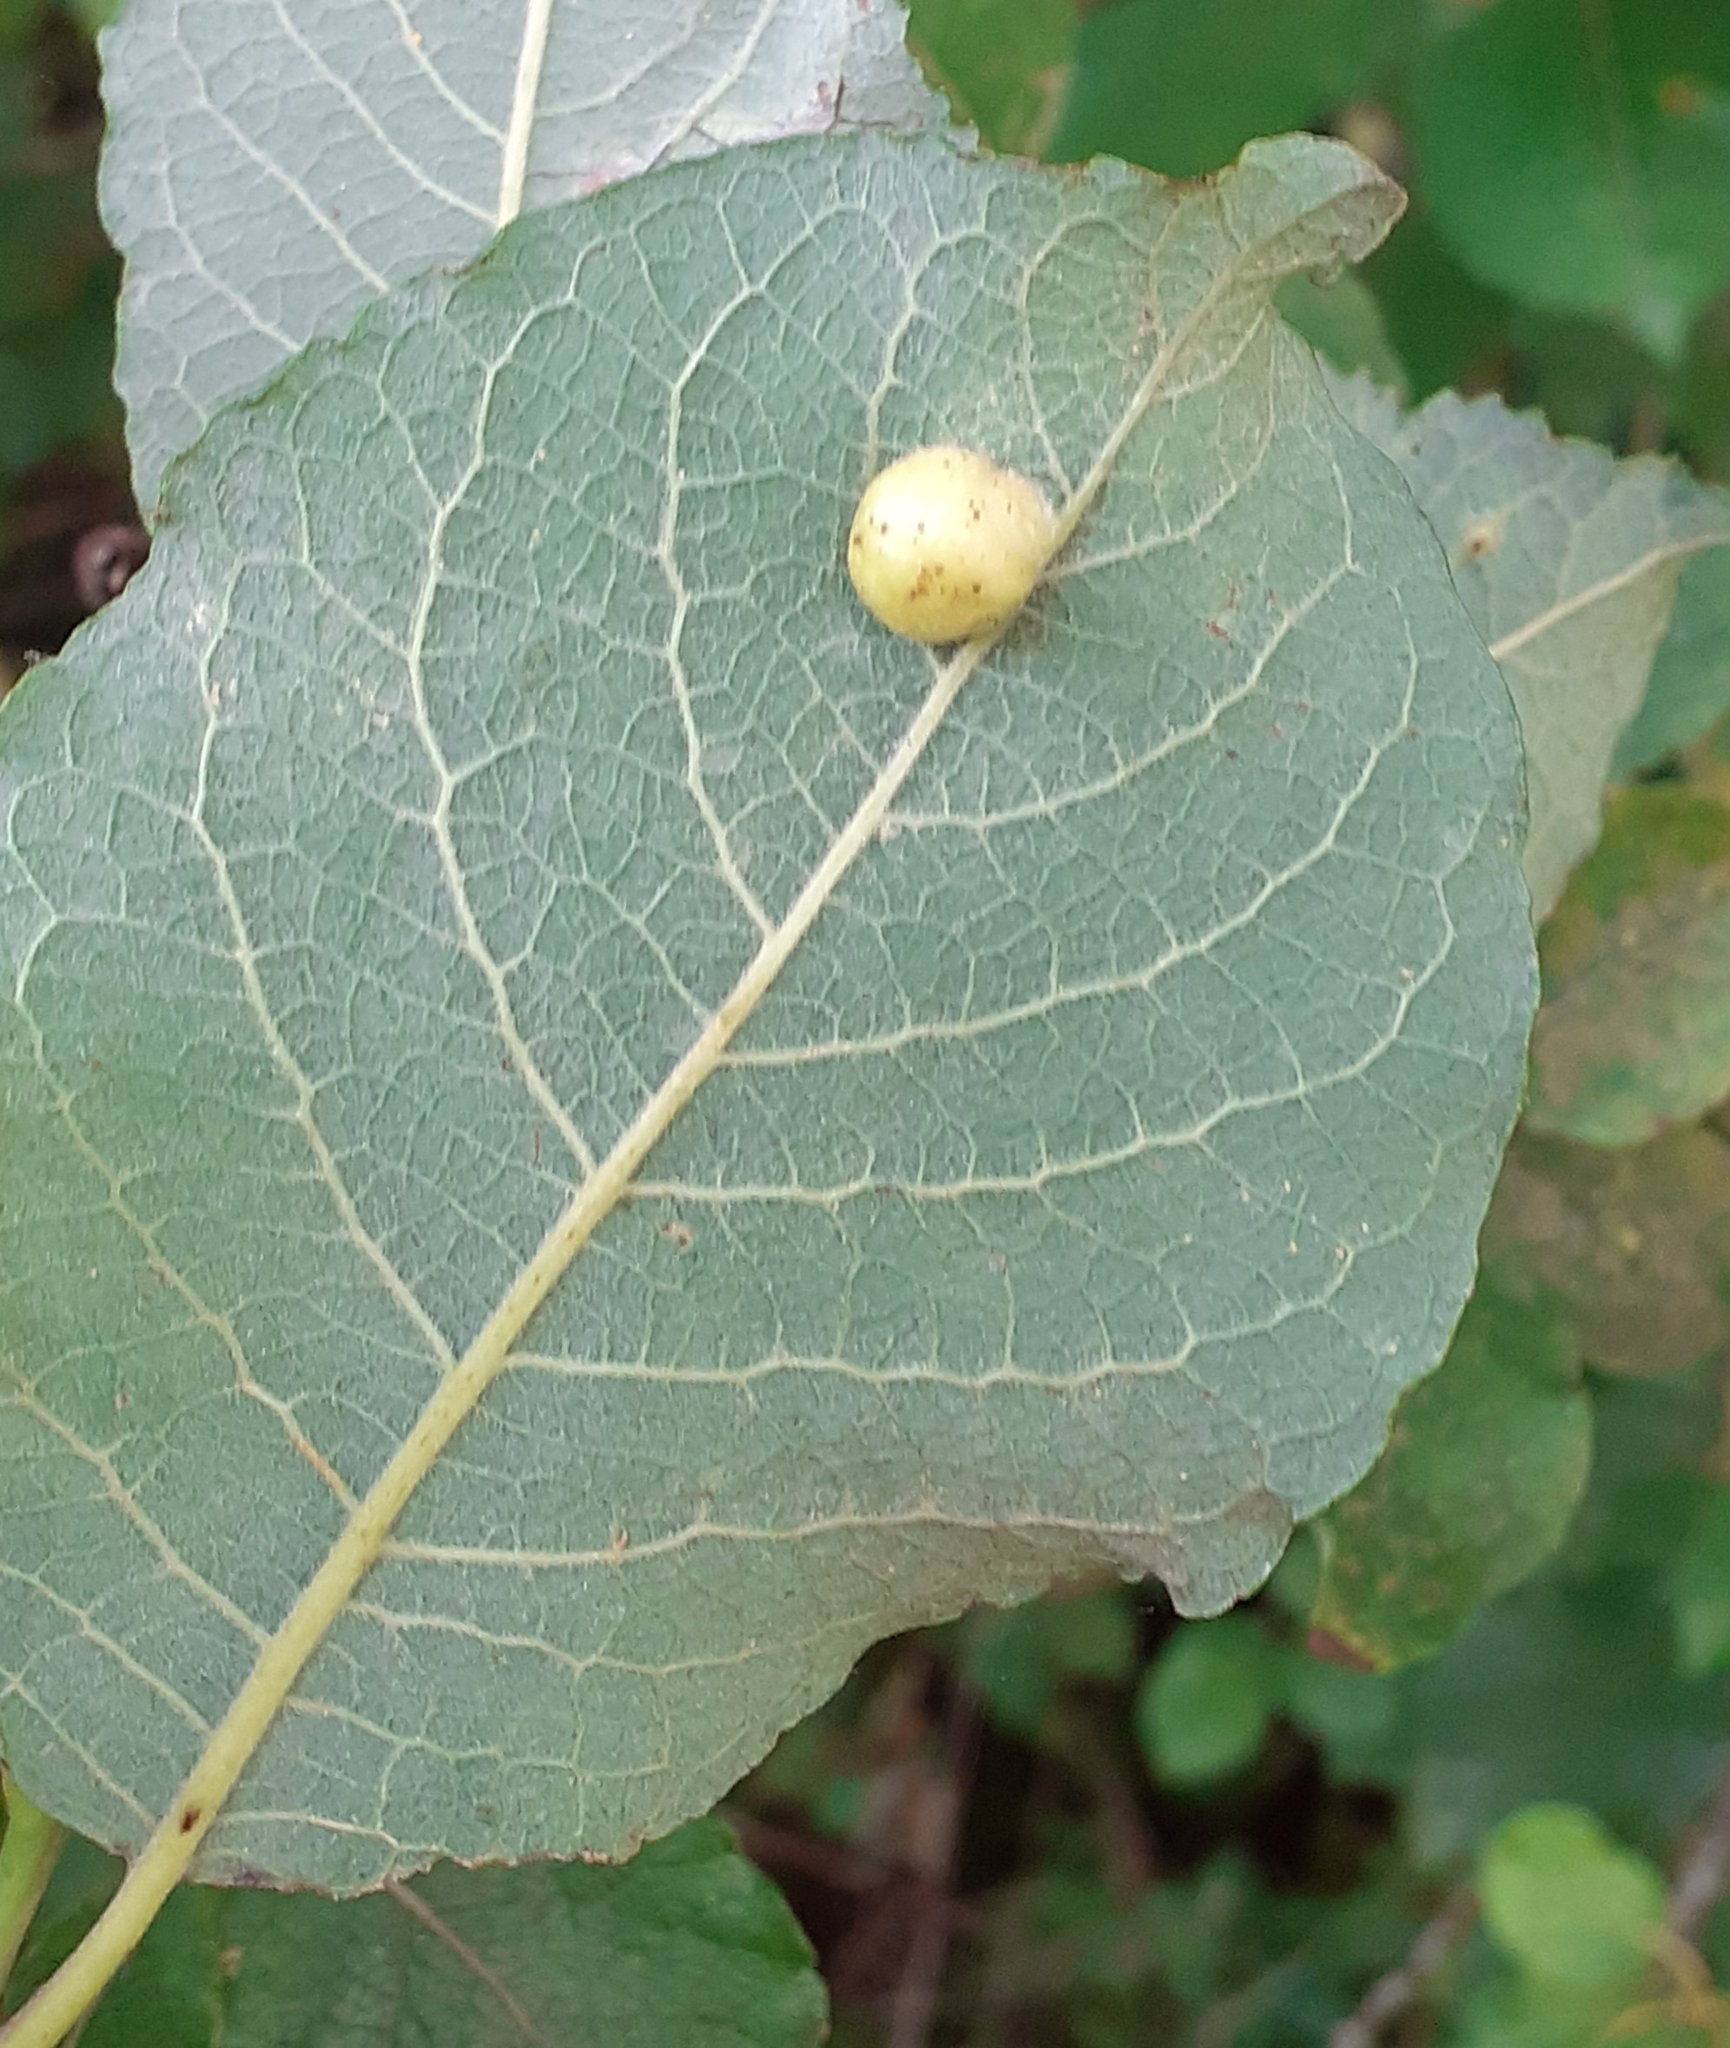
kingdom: Animalia
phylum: Arthropoda
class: Insecta
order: Hymenoptera
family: Tenthredinidae
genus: Pontania
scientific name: Pontania pedunculi
